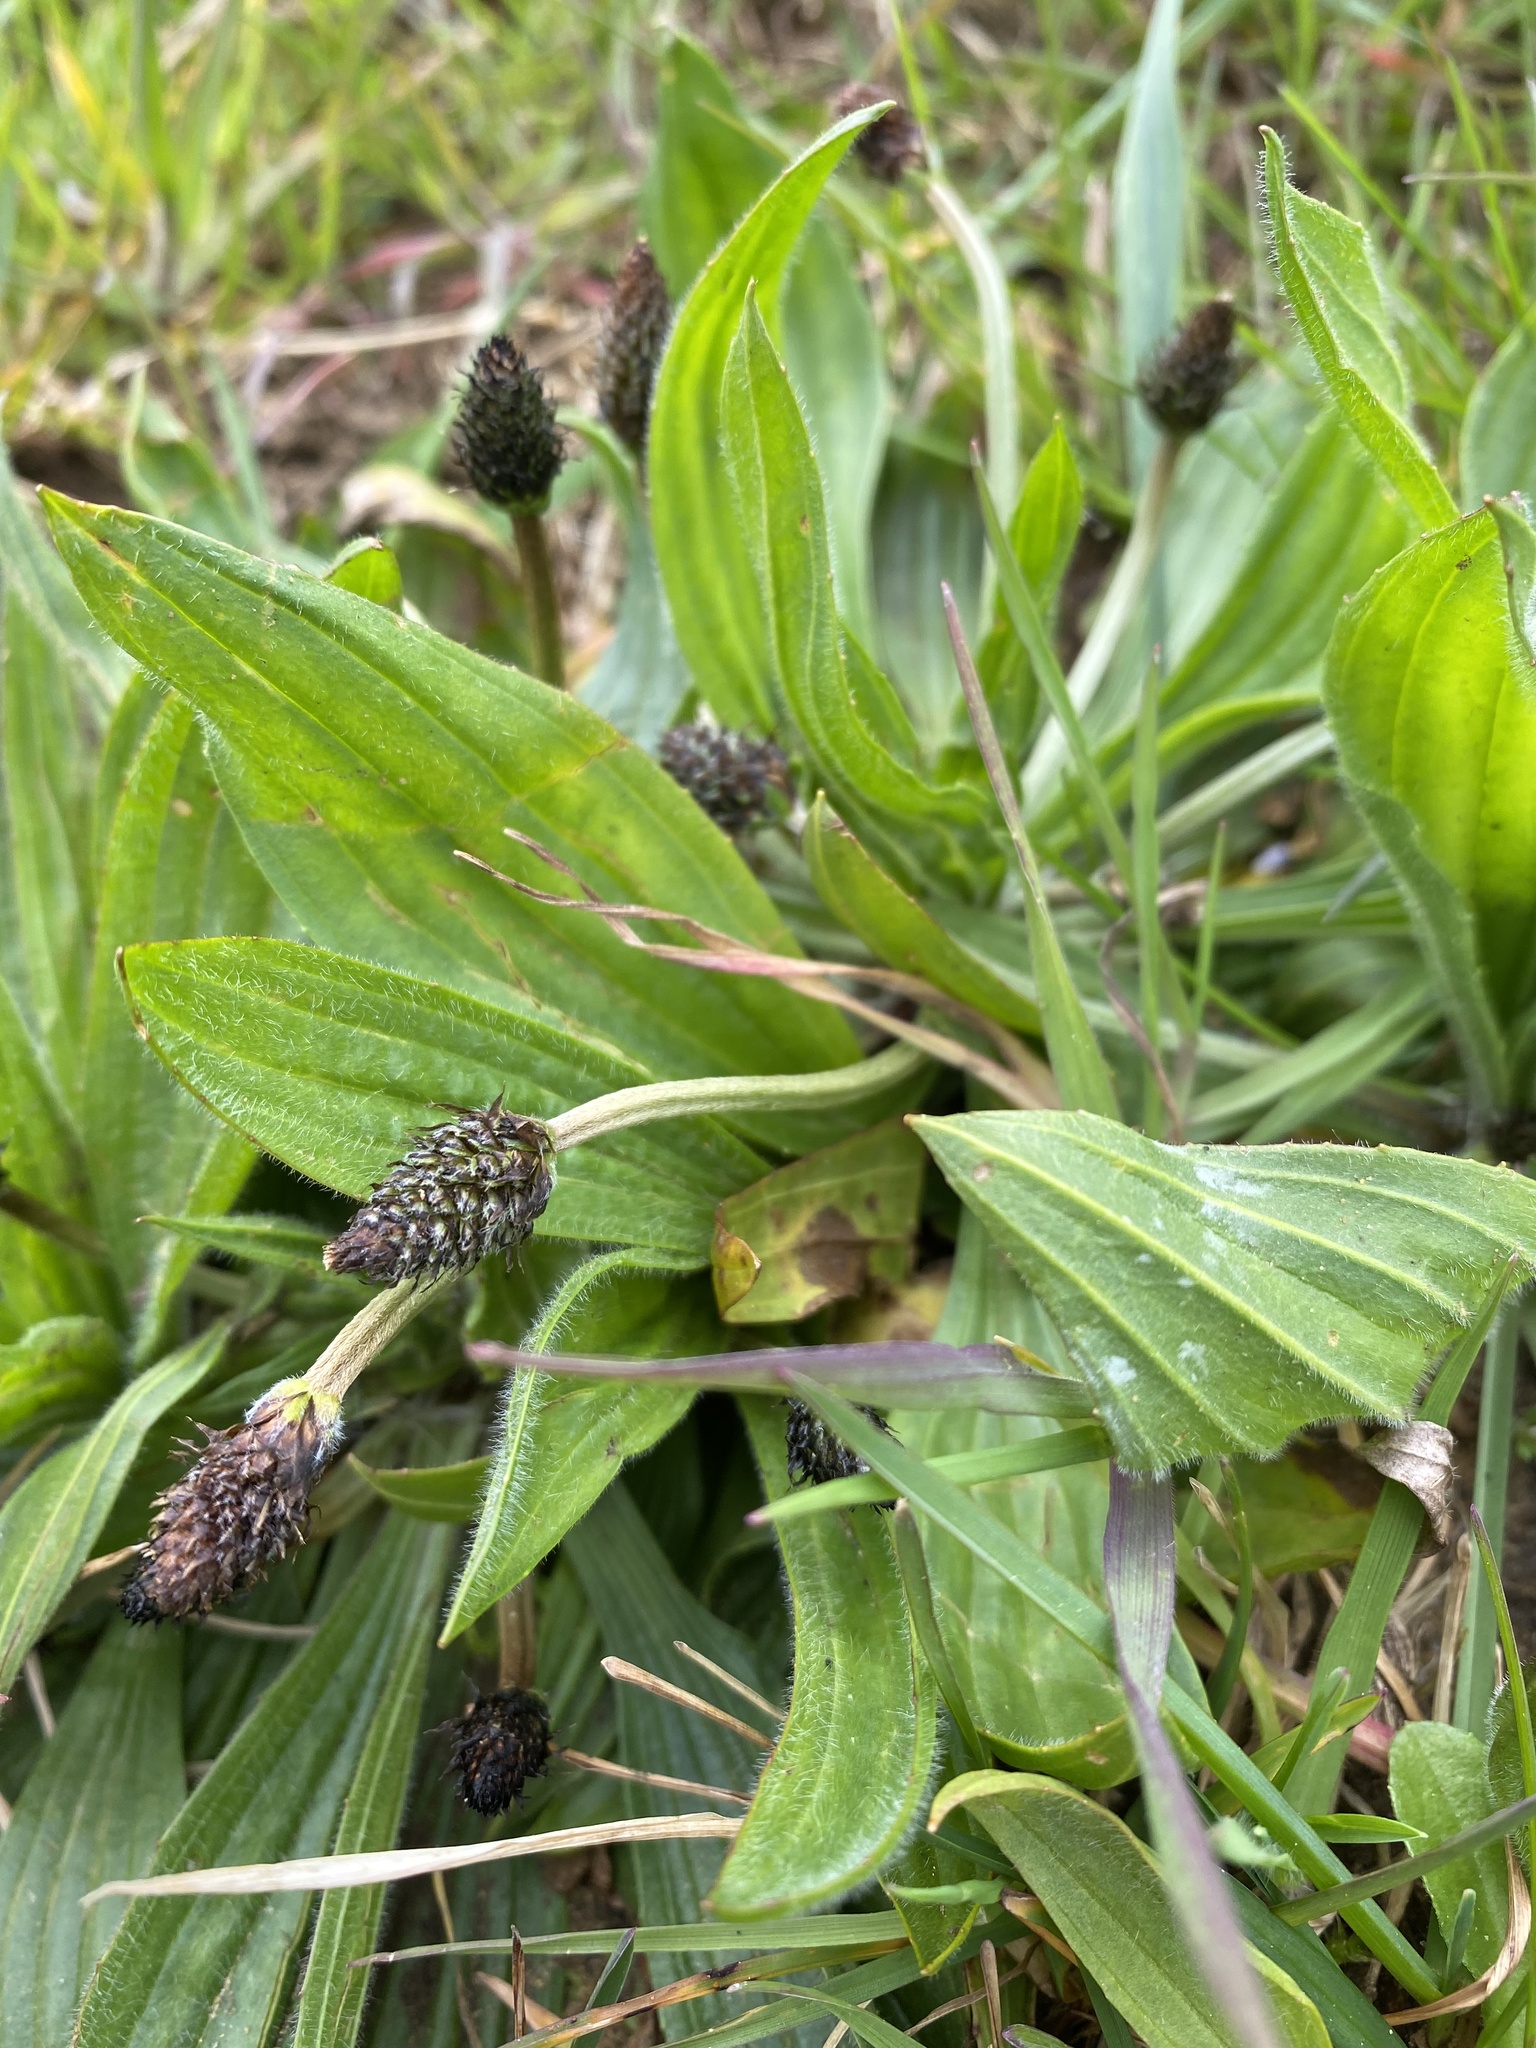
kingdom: Plantae
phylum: Tracheophyta
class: Magnoliopsida
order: Lamiales
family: Plantaginaceae
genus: Plantago
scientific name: Plantago lanceolata
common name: Ribwort plantain
